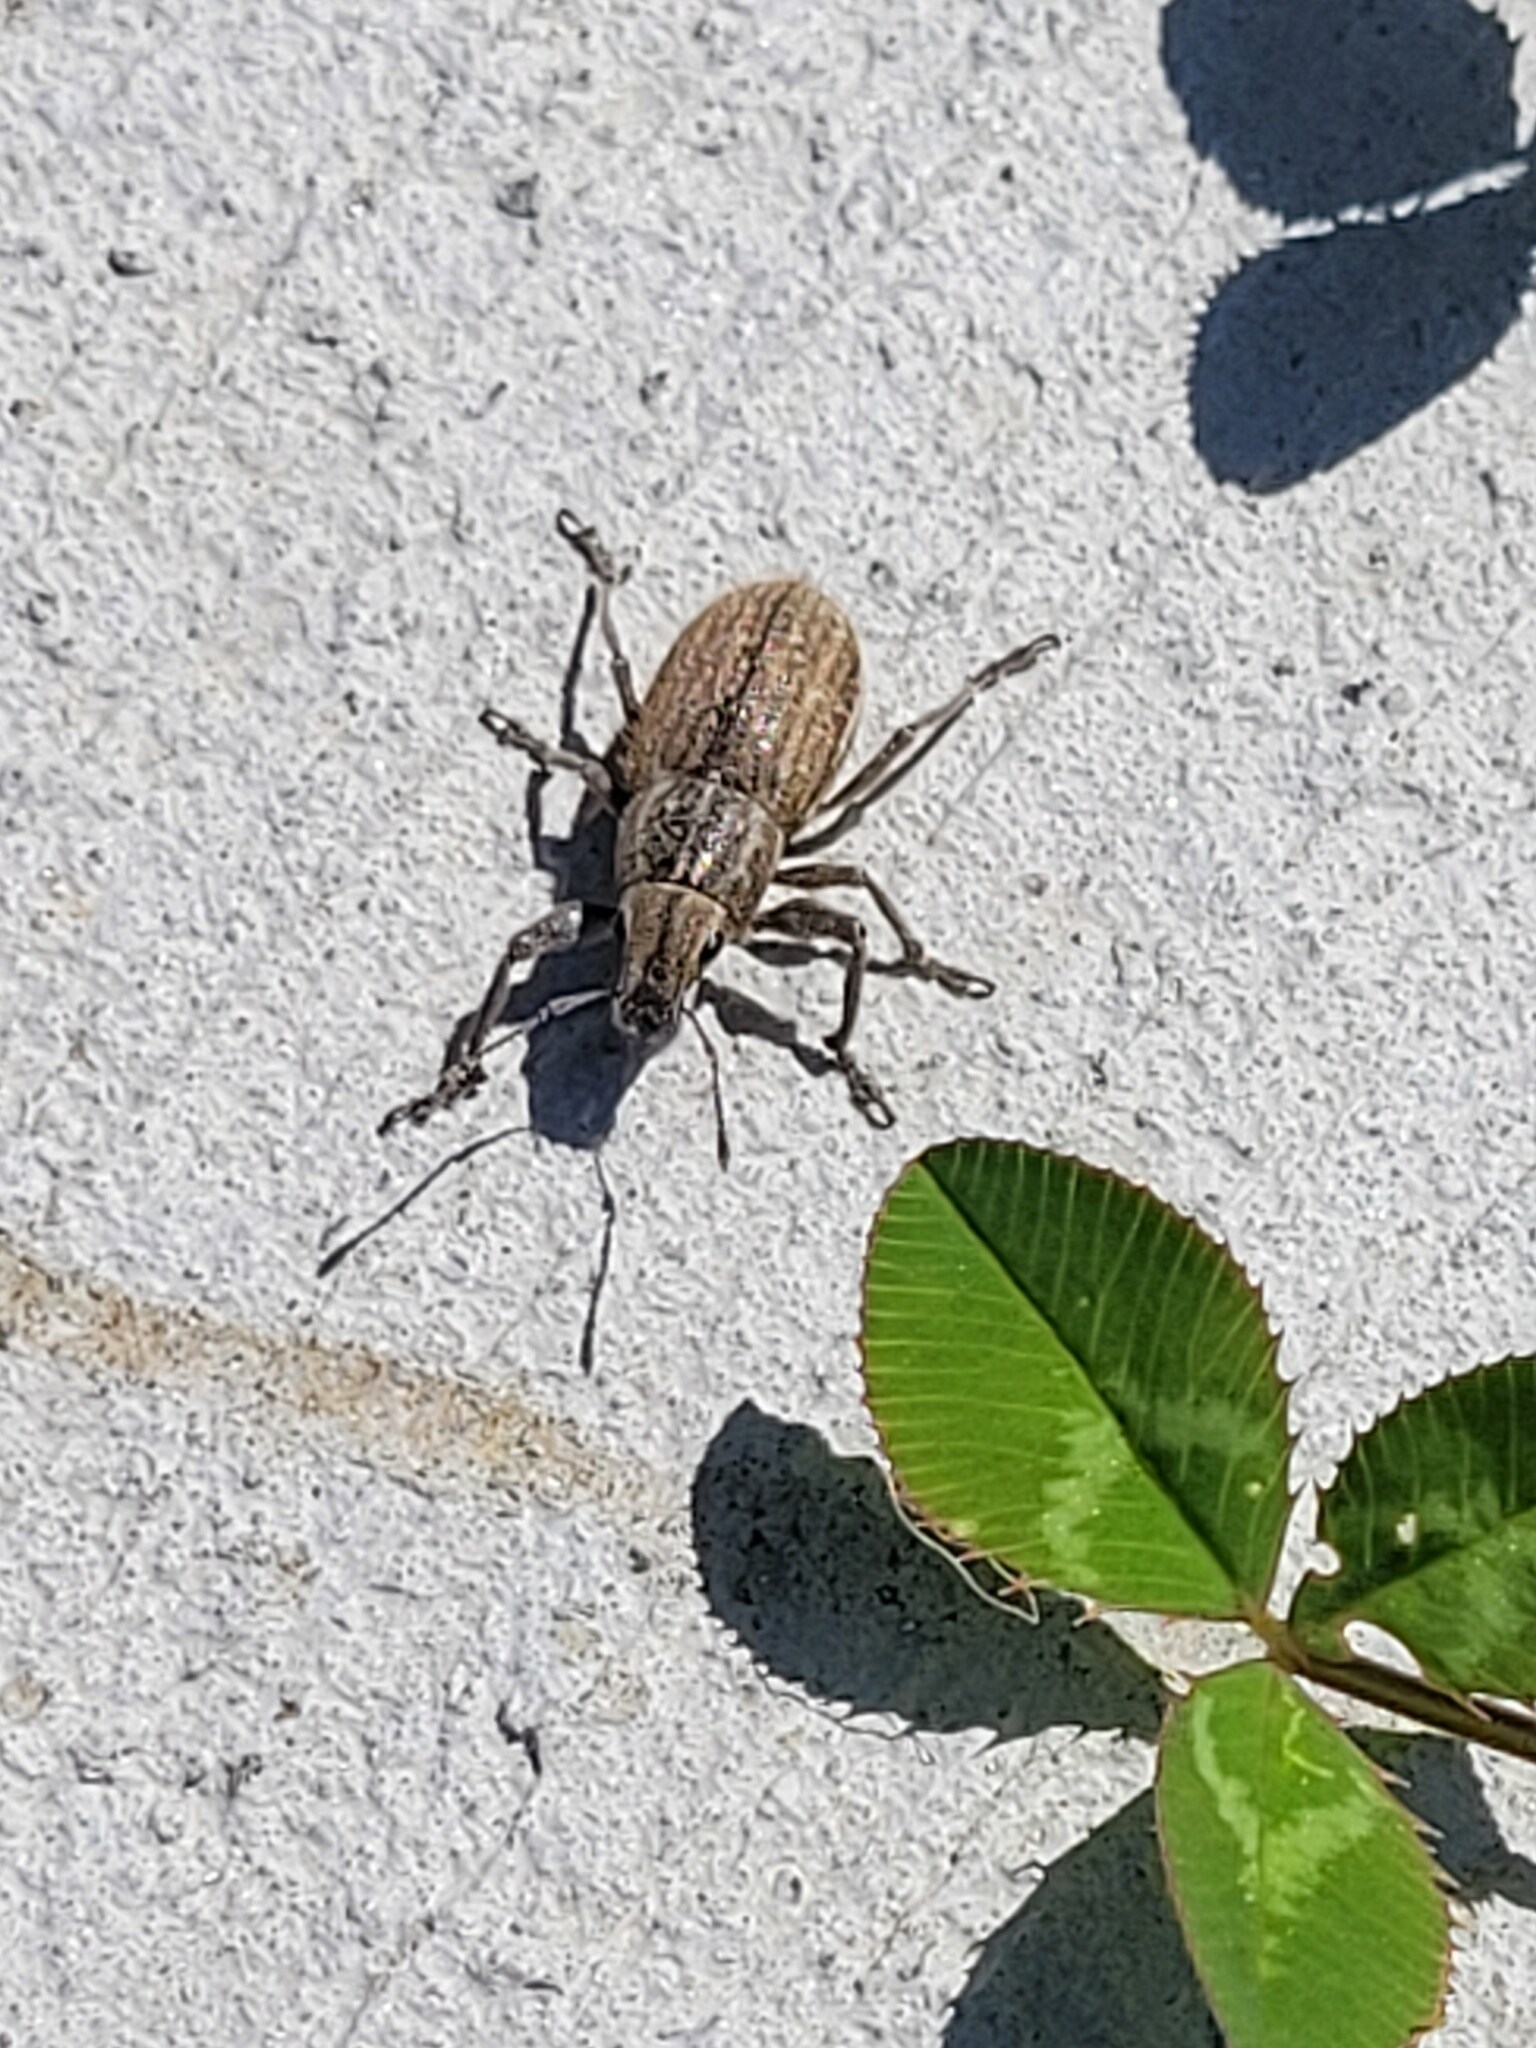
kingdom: Animalia
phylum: Arthropoda
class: Insecta
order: Coleoptera
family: Curculionidae
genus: Naupactus
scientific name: Naupactus leucoloma
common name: Whitefringed beetle
